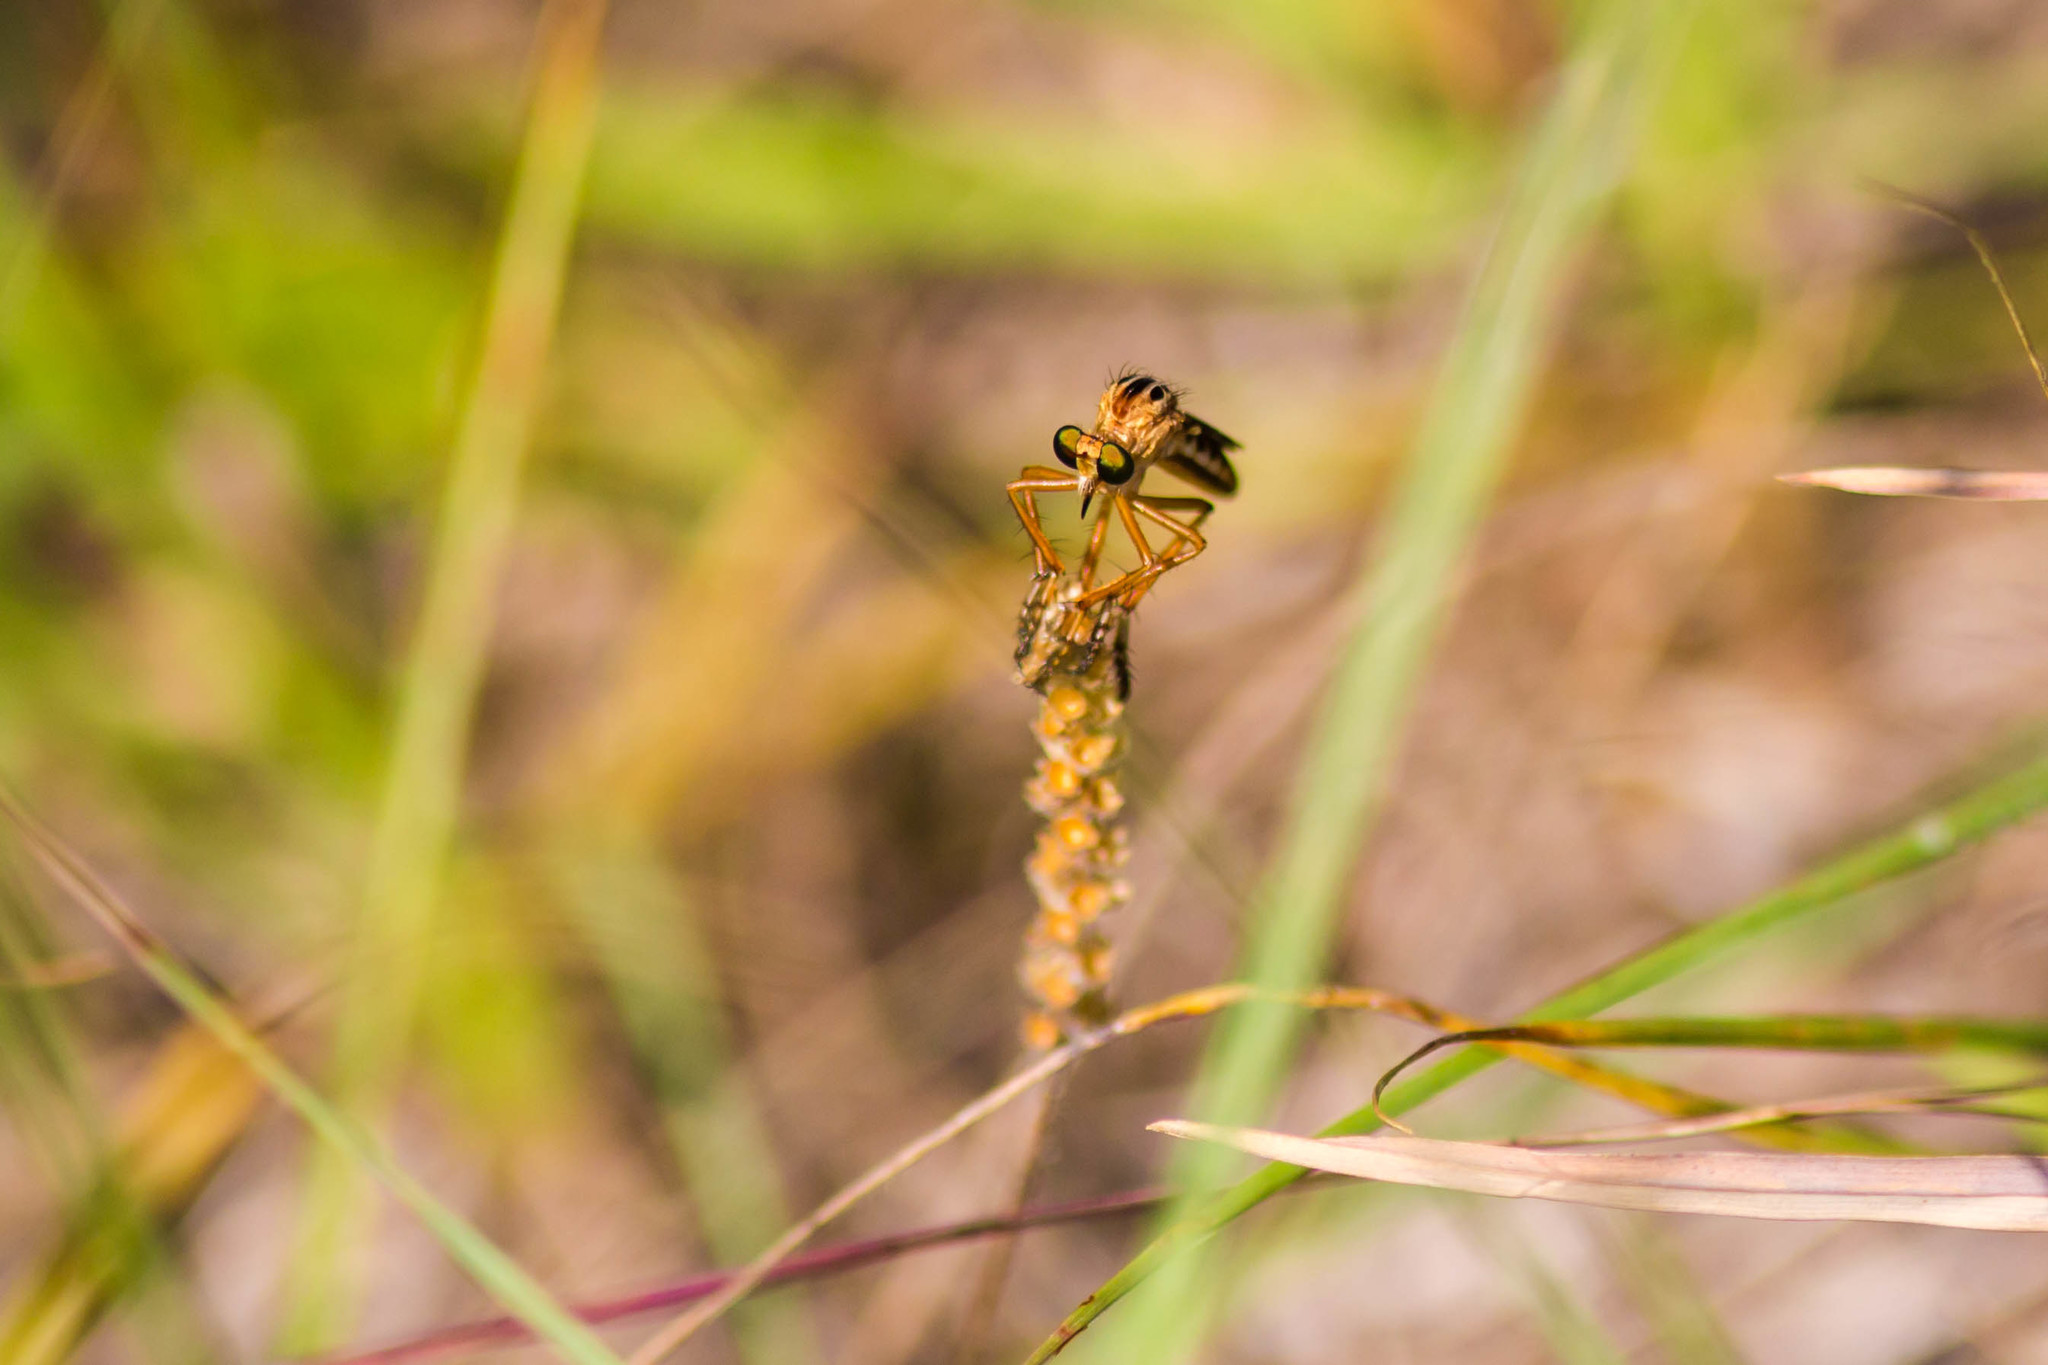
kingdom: Animalia
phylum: Arthropoda
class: Insecta
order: Diptera
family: Asilidae
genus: Diogmites
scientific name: Diogmites misellus
